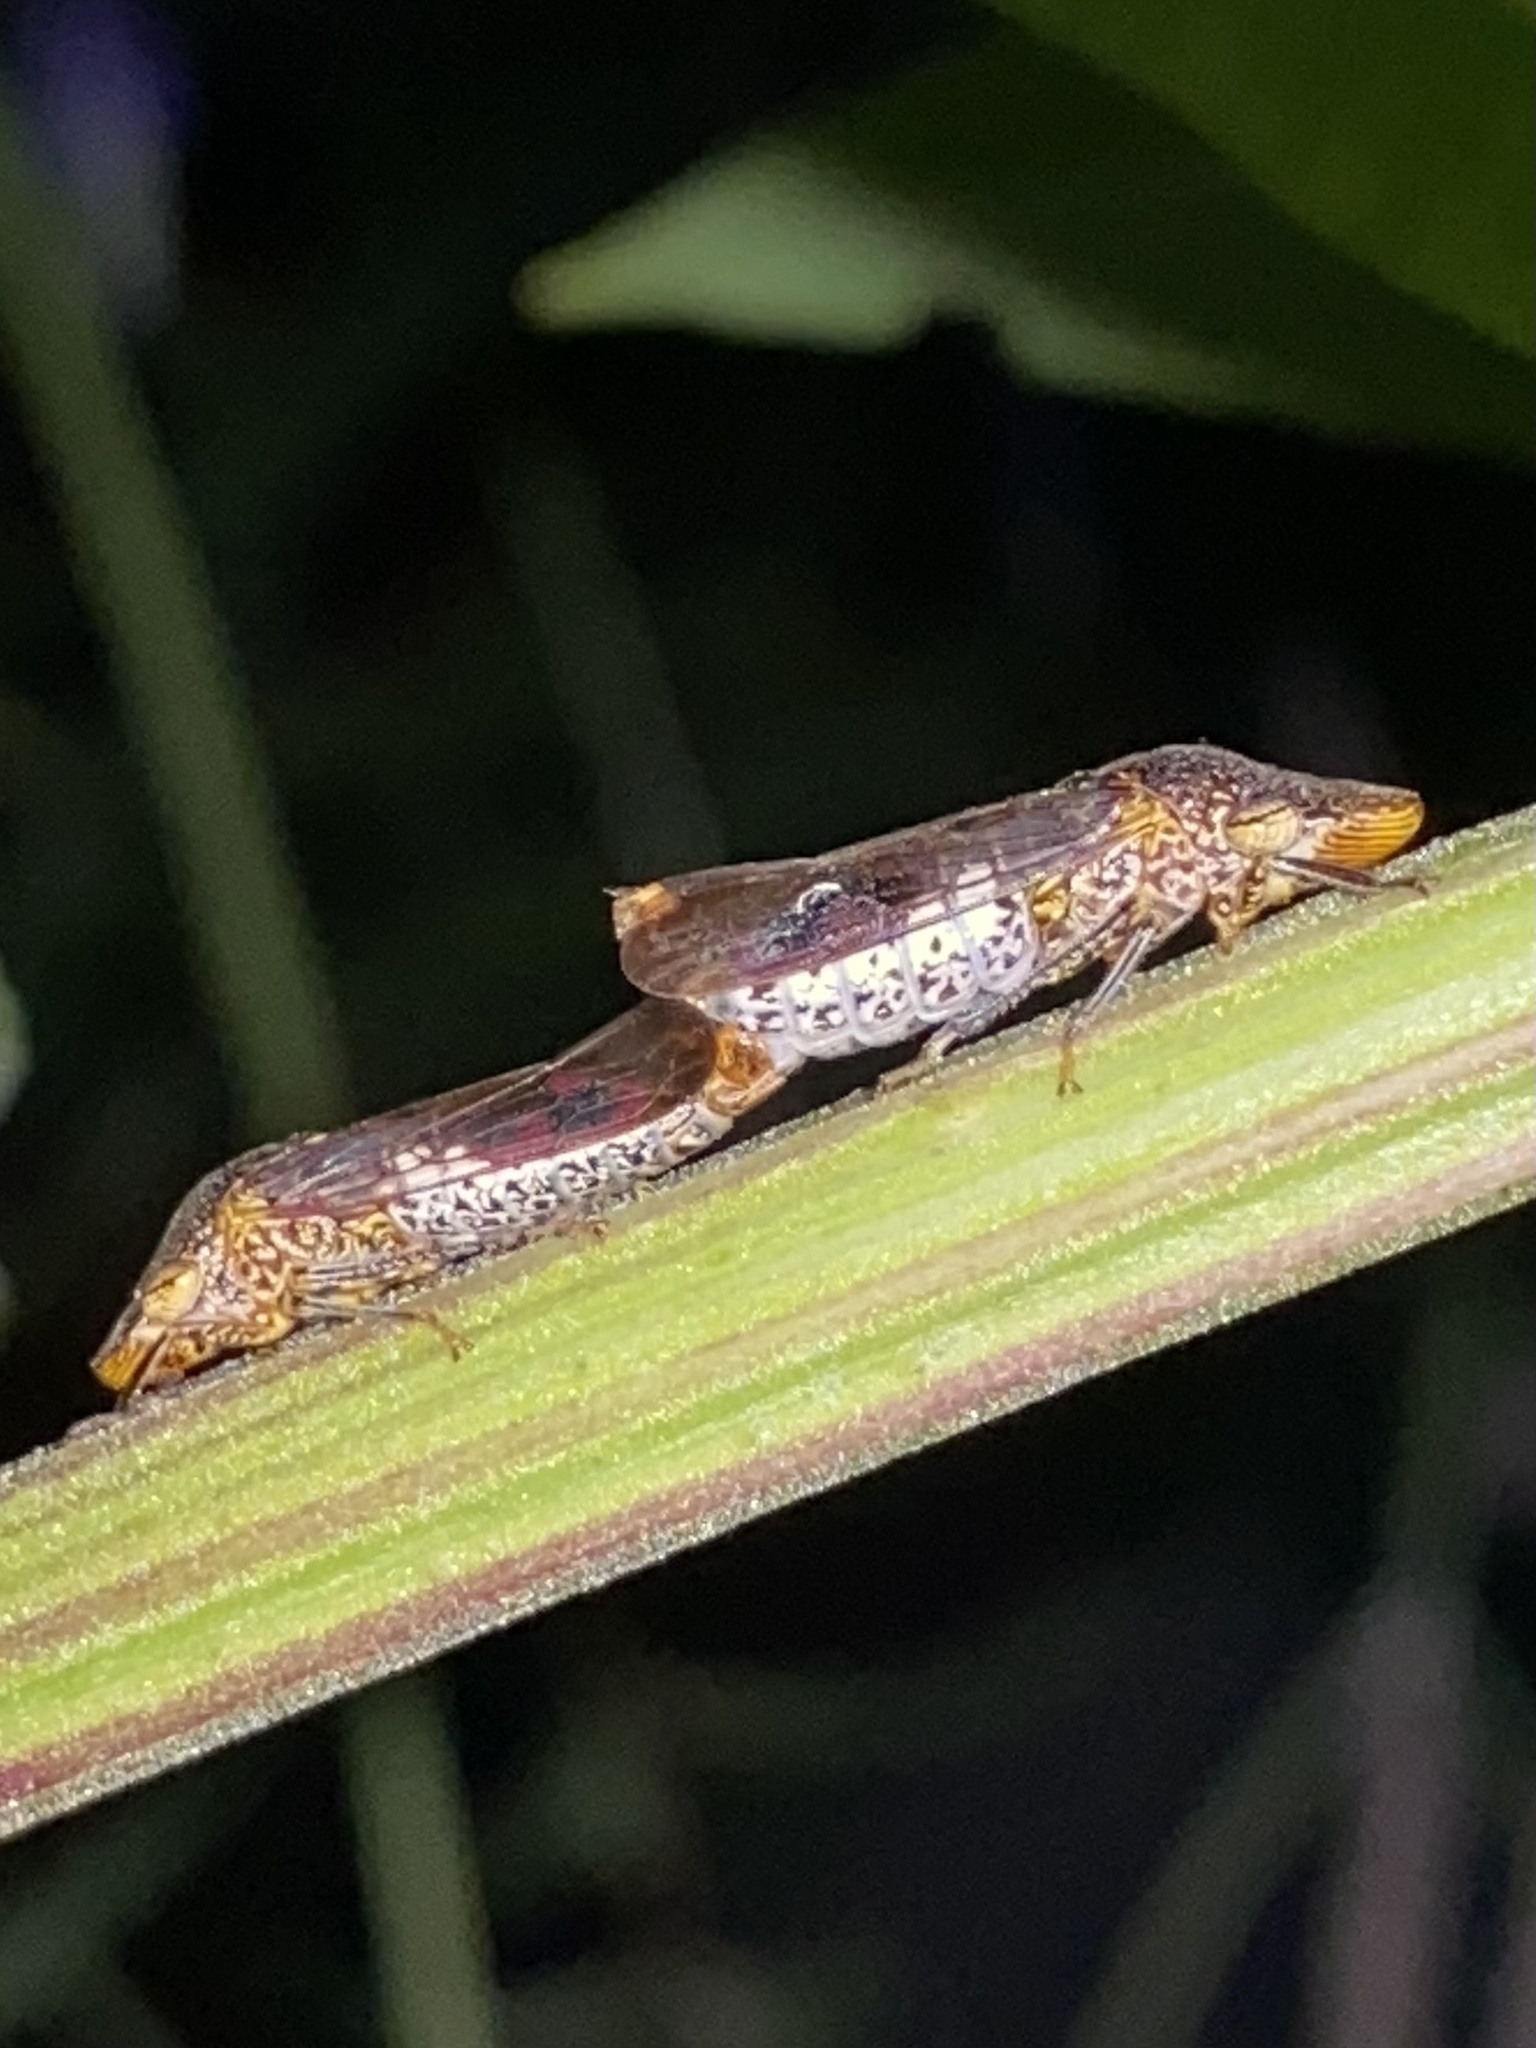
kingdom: Animalia
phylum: Arthropoda
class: Insecta
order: Hemiptera
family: Cicadellidae
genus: Homalodisca
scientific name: Homalodisca vitripennis
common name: Glassy-winged sharpshooter
